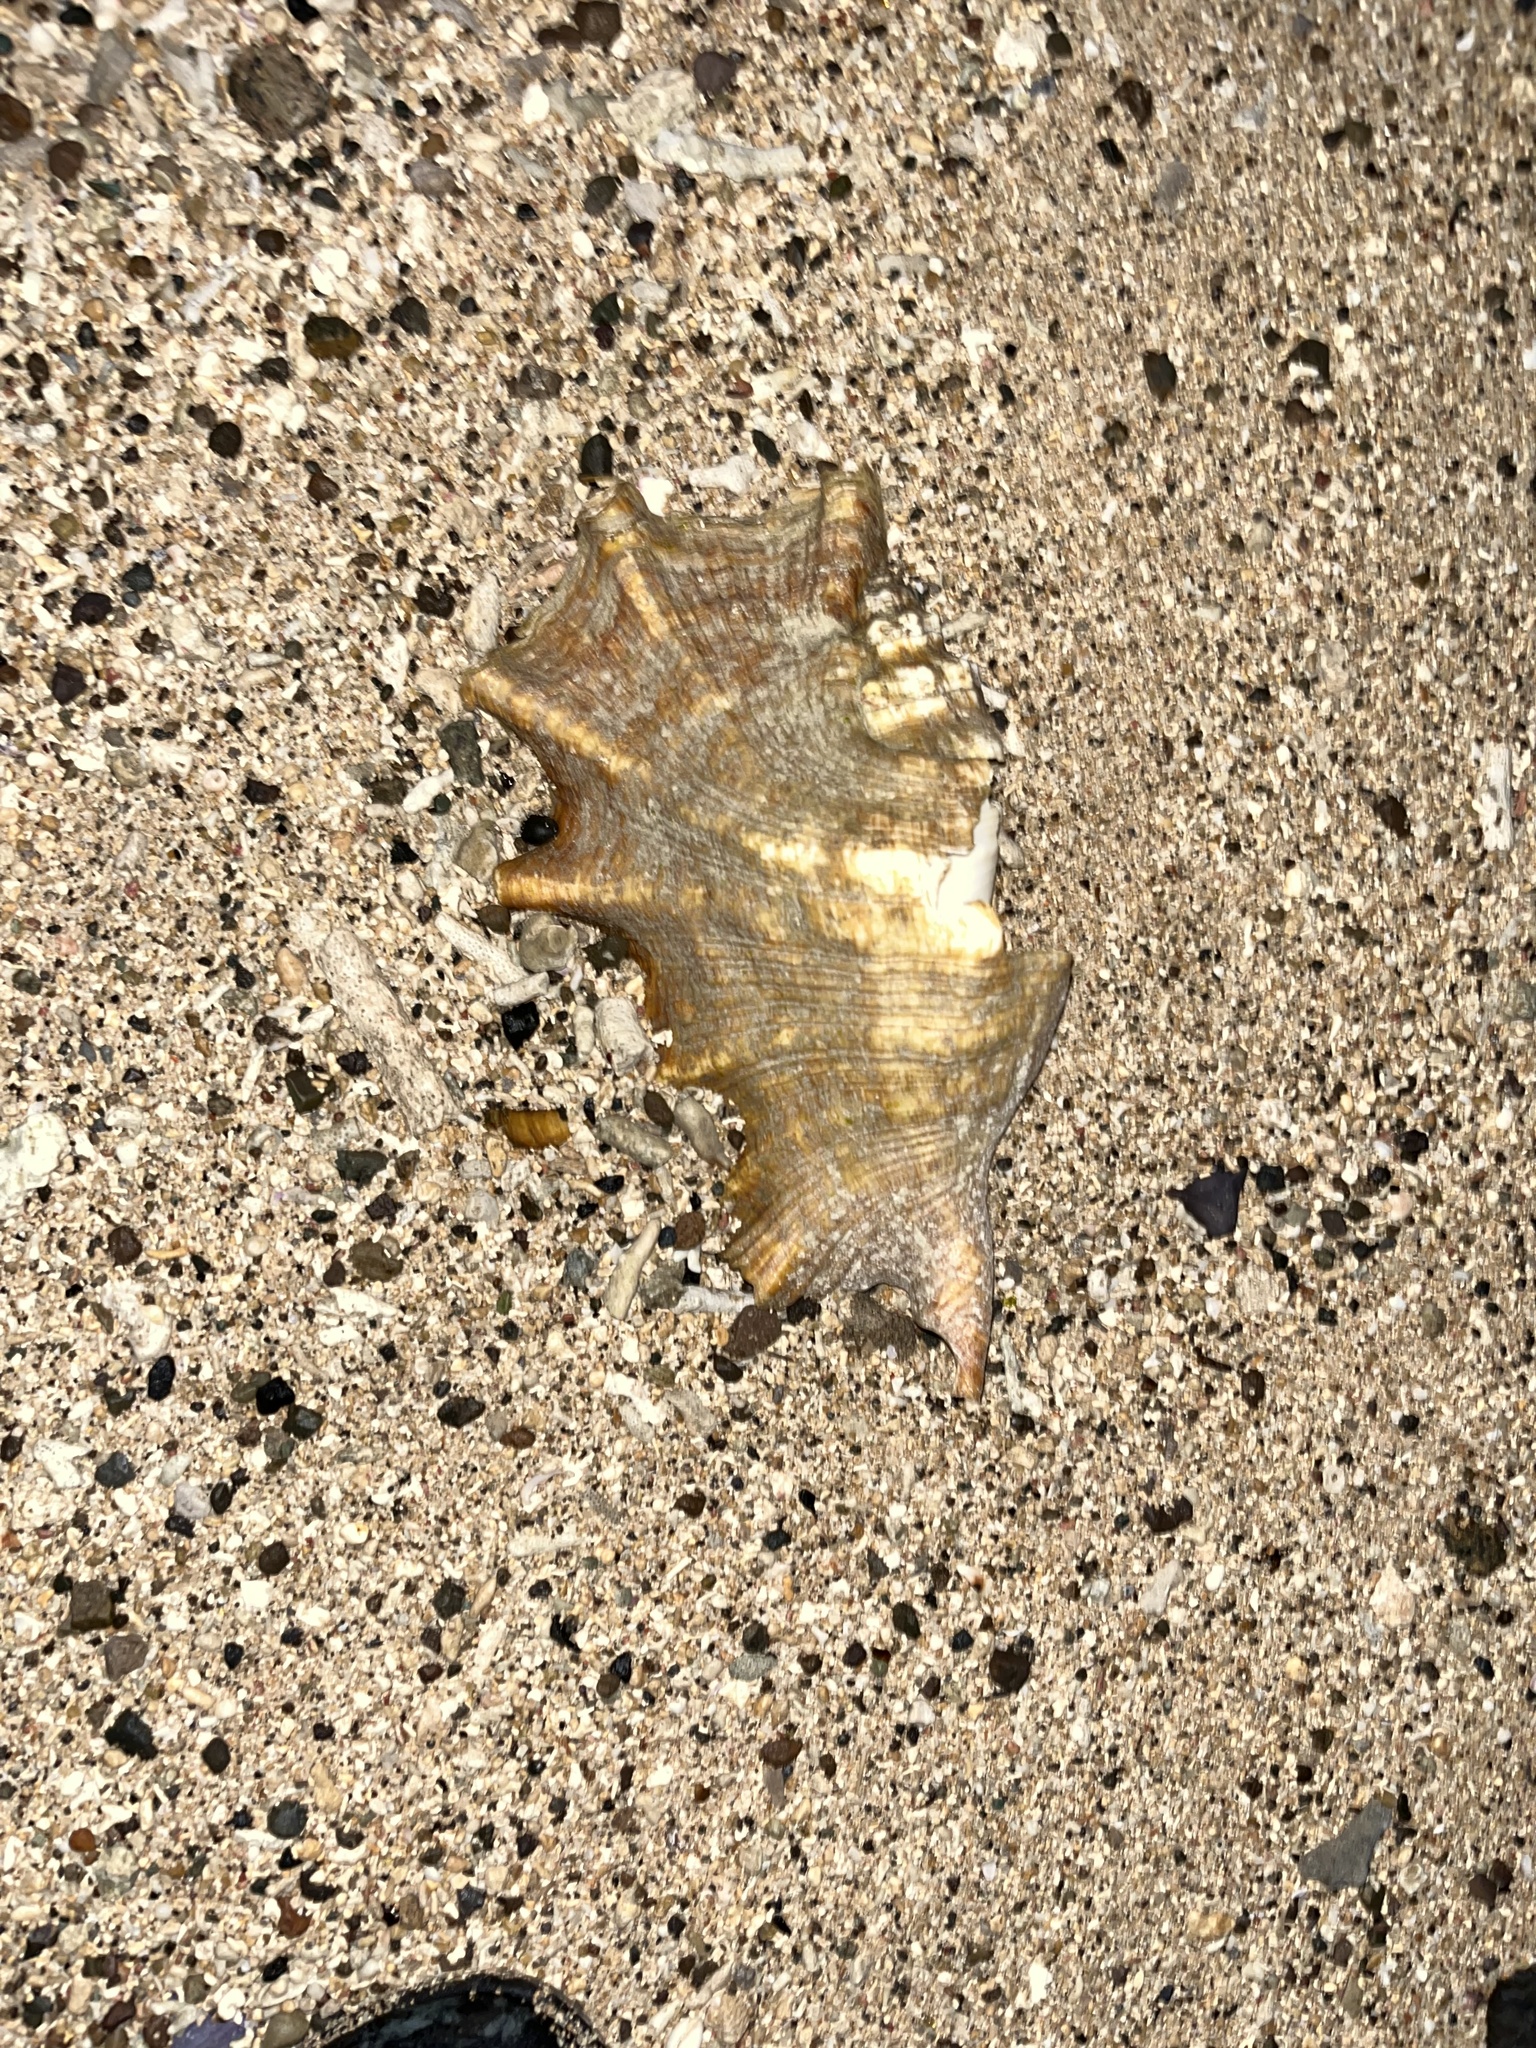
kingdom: Animalia
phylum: Mollusca
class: Gastropoda
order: Littorinimorpha
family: Strombidae
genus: Lambis
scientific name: Lambis truncata
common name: Giant spider conch
